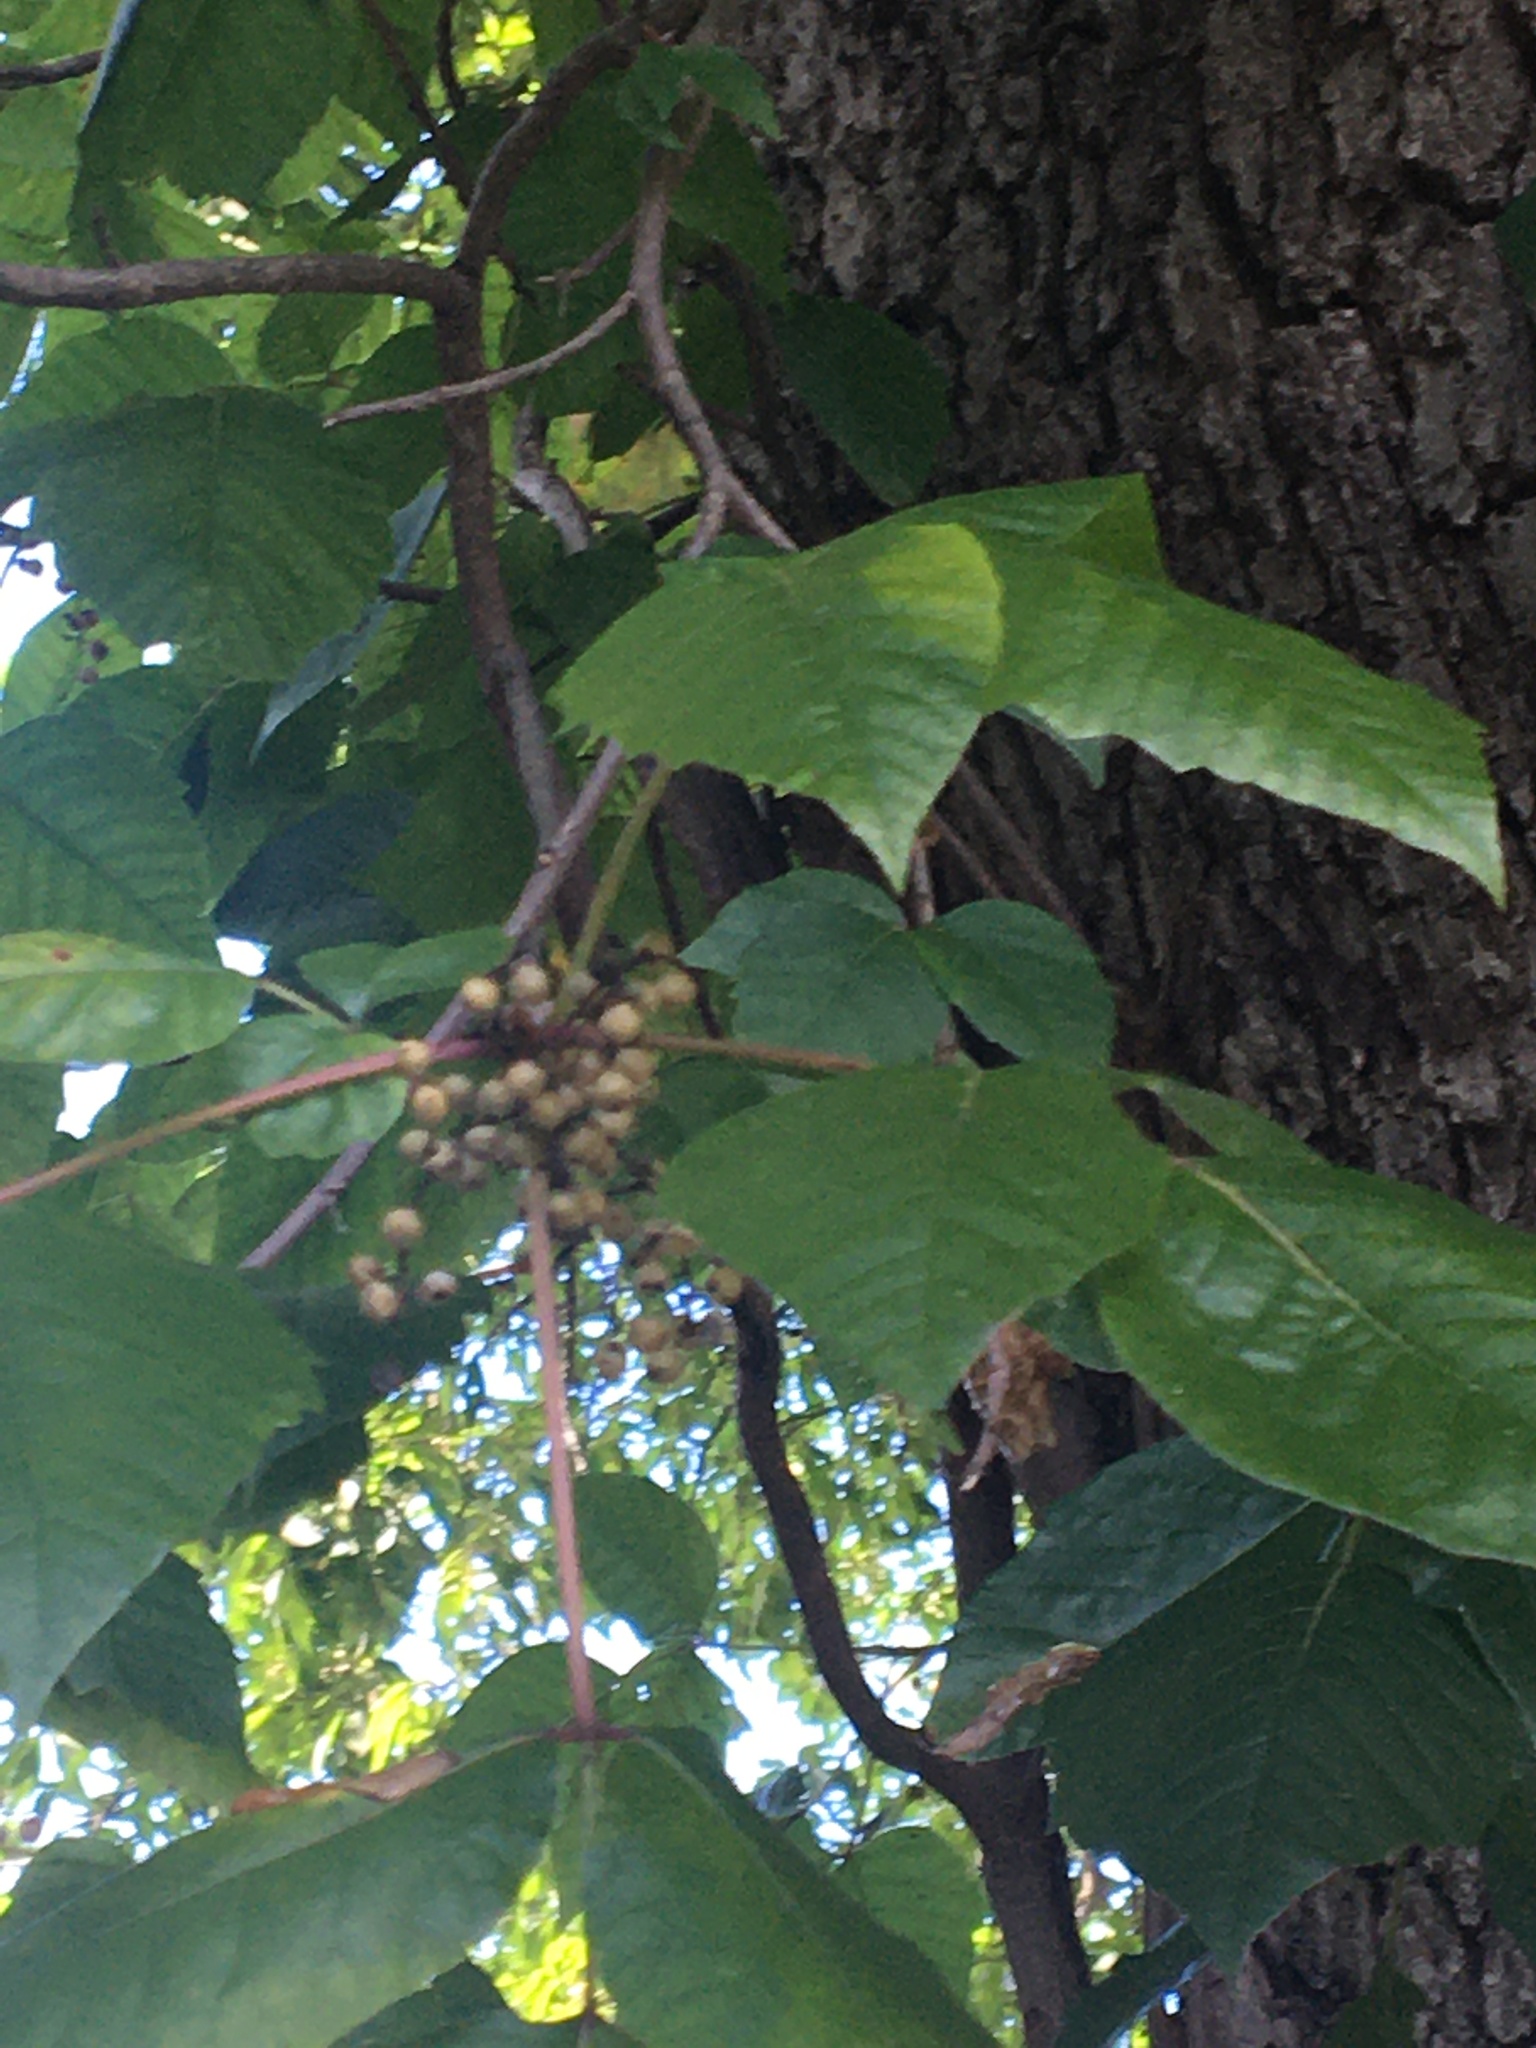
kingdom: Plantae
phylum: Tracheophyta
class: Magnoliopsida
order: Sapindales
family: Anacardiaceae
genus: Toxicodendron
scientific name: Toxicodendron radicans
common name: Poison ivy
